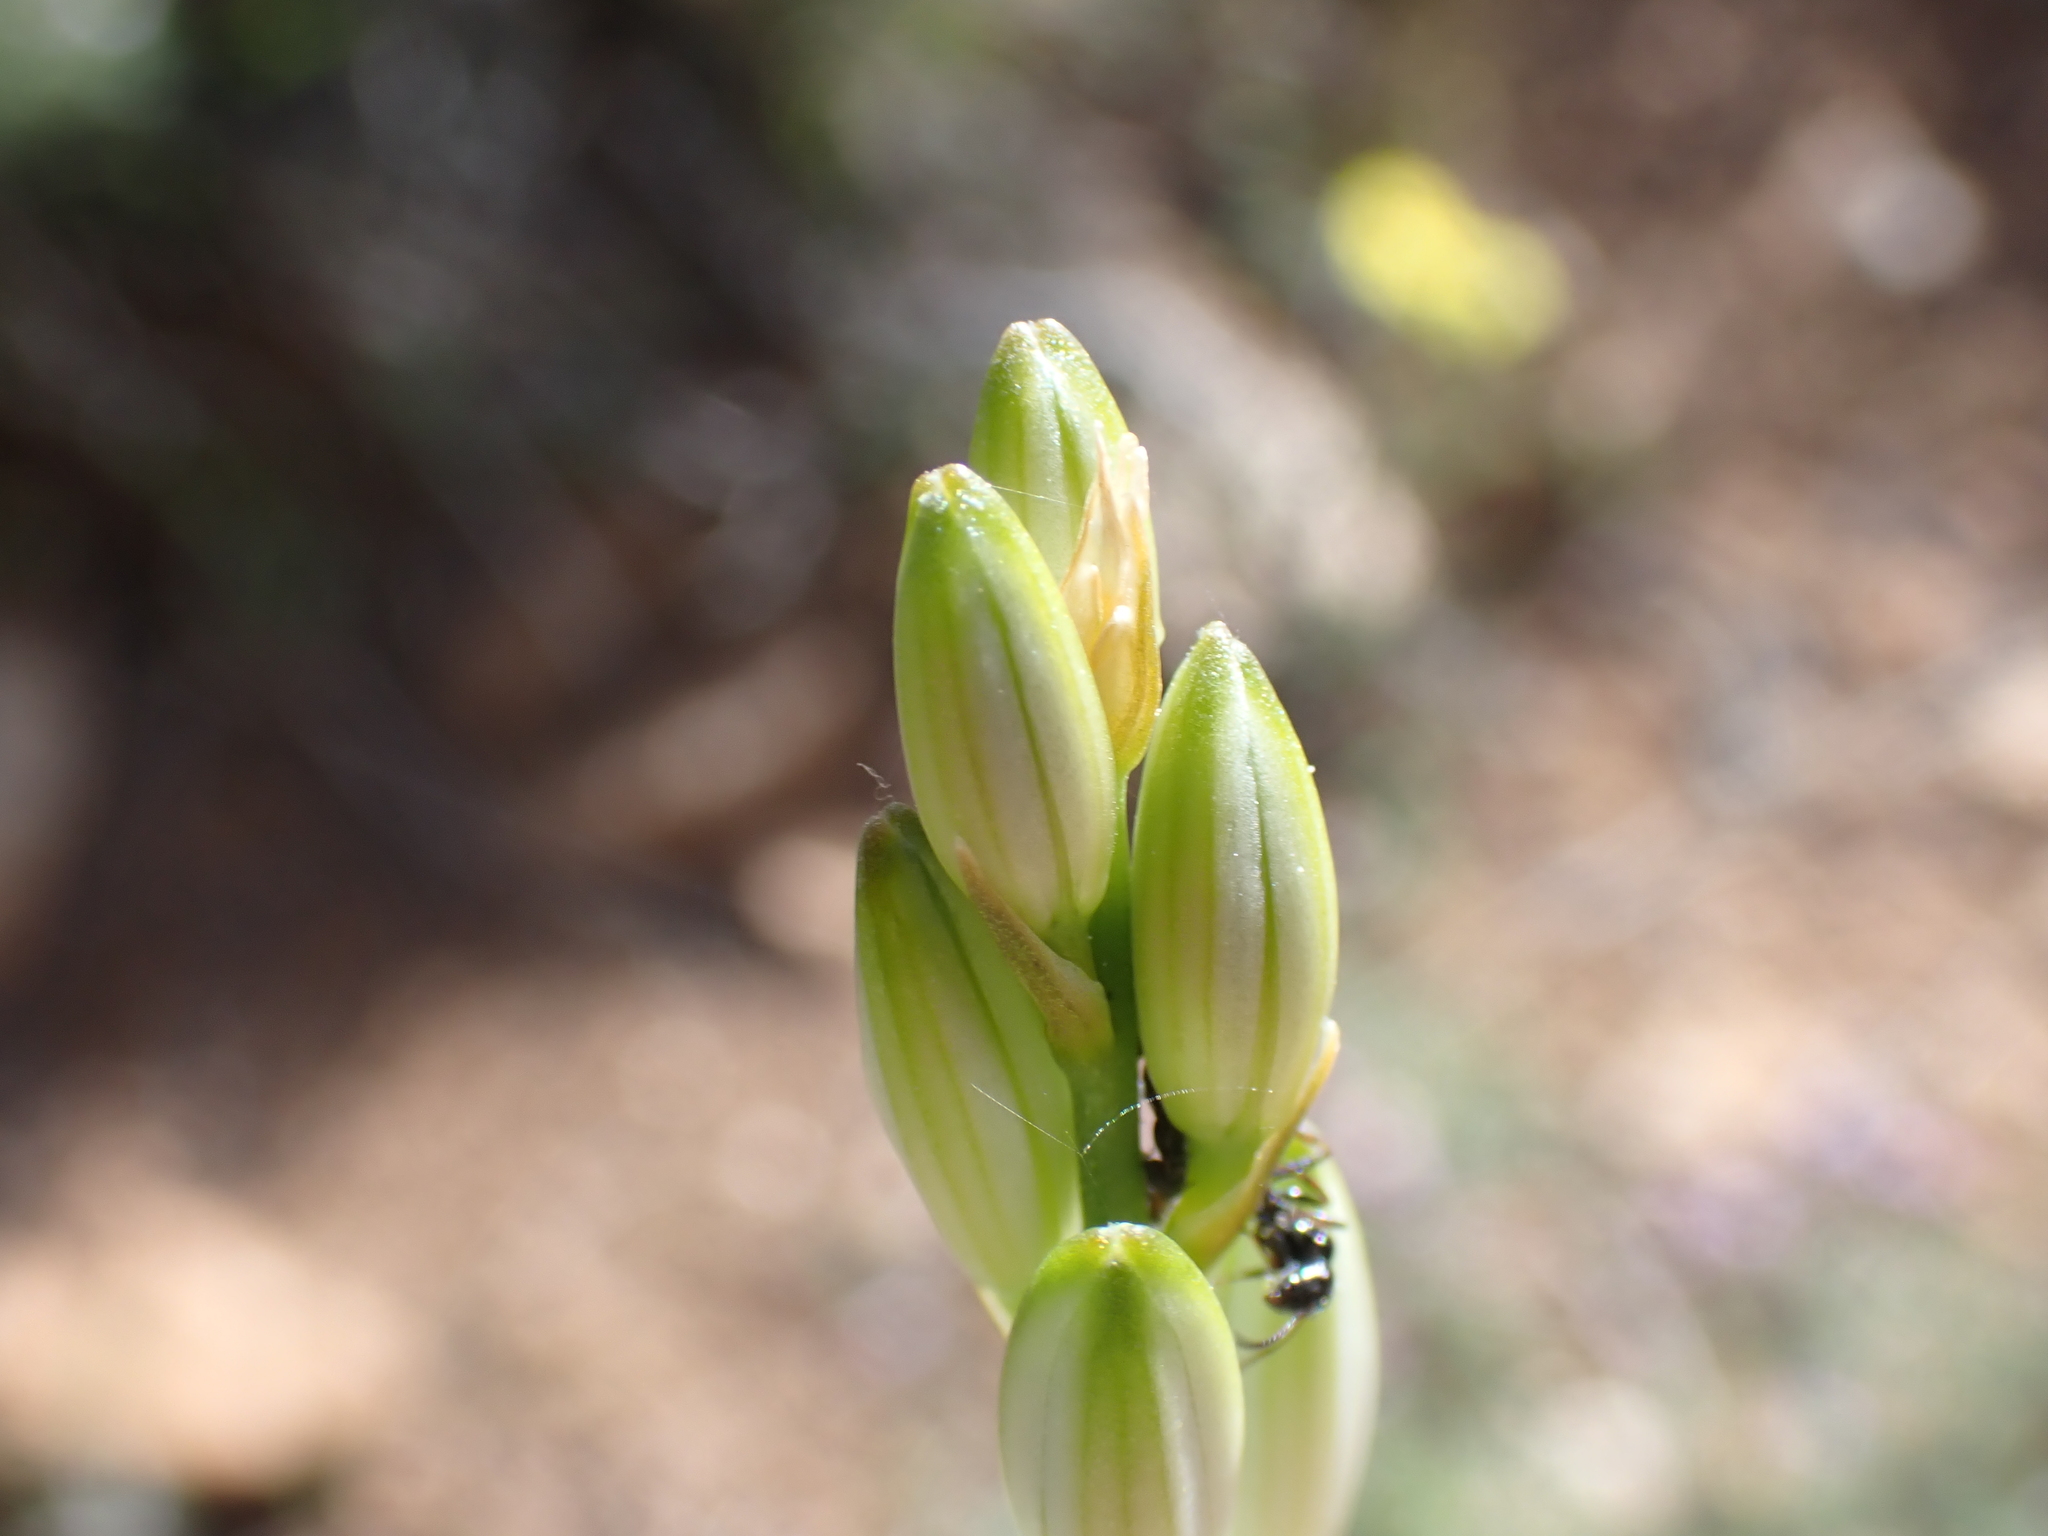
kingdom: Plantae
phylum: Tracheophyta
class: Liliopsida
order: Asparagales
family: Asparagaceae
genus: Anthericum
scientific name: Anthericum liliago
